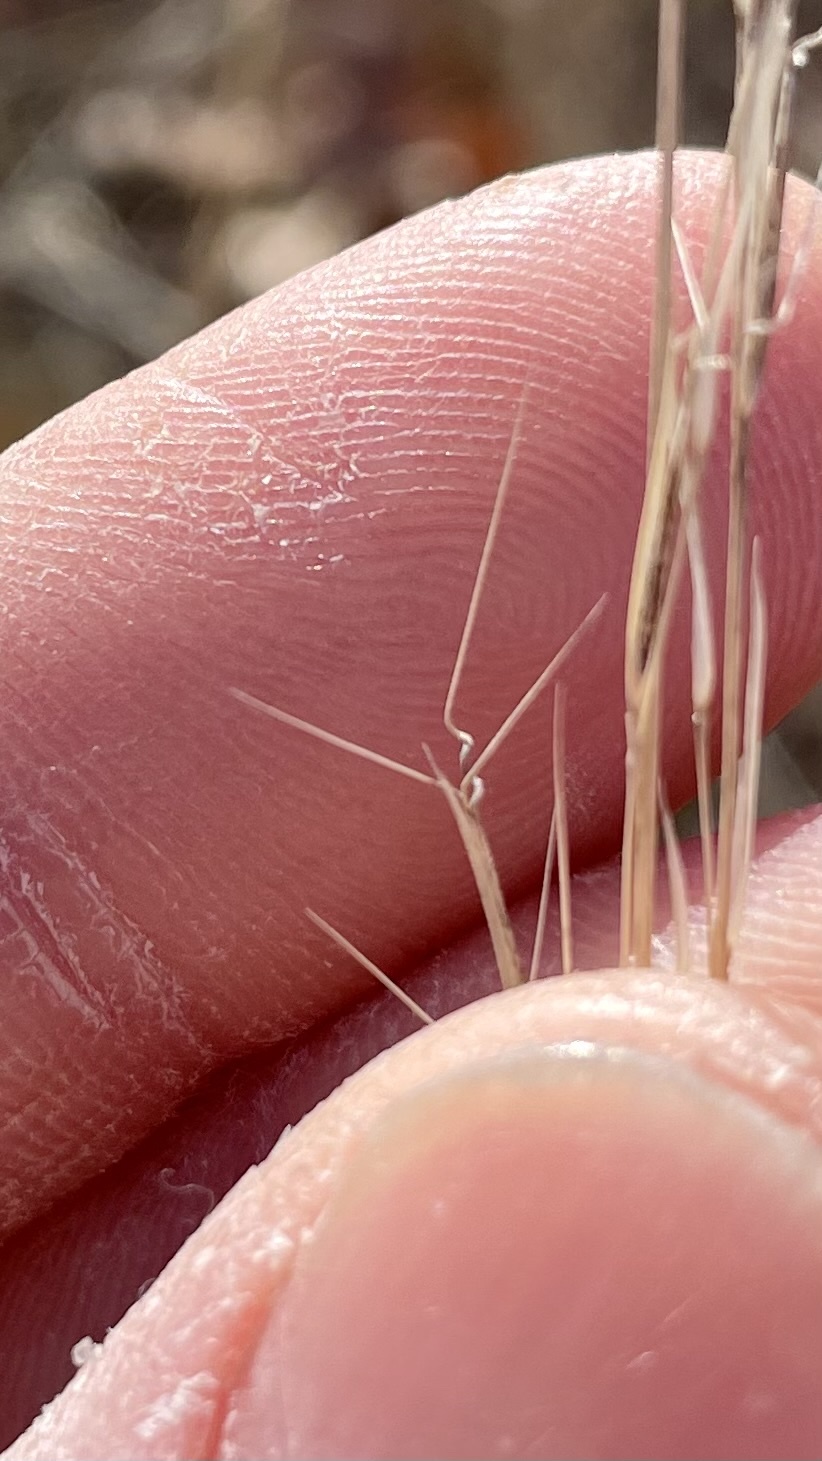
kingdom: Plantae
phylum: Tracheophyta
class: Liliopsida
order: Poales
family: Poaceae
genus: Aristida
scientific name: Aristida basiramea
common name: Forked three-awned grass
